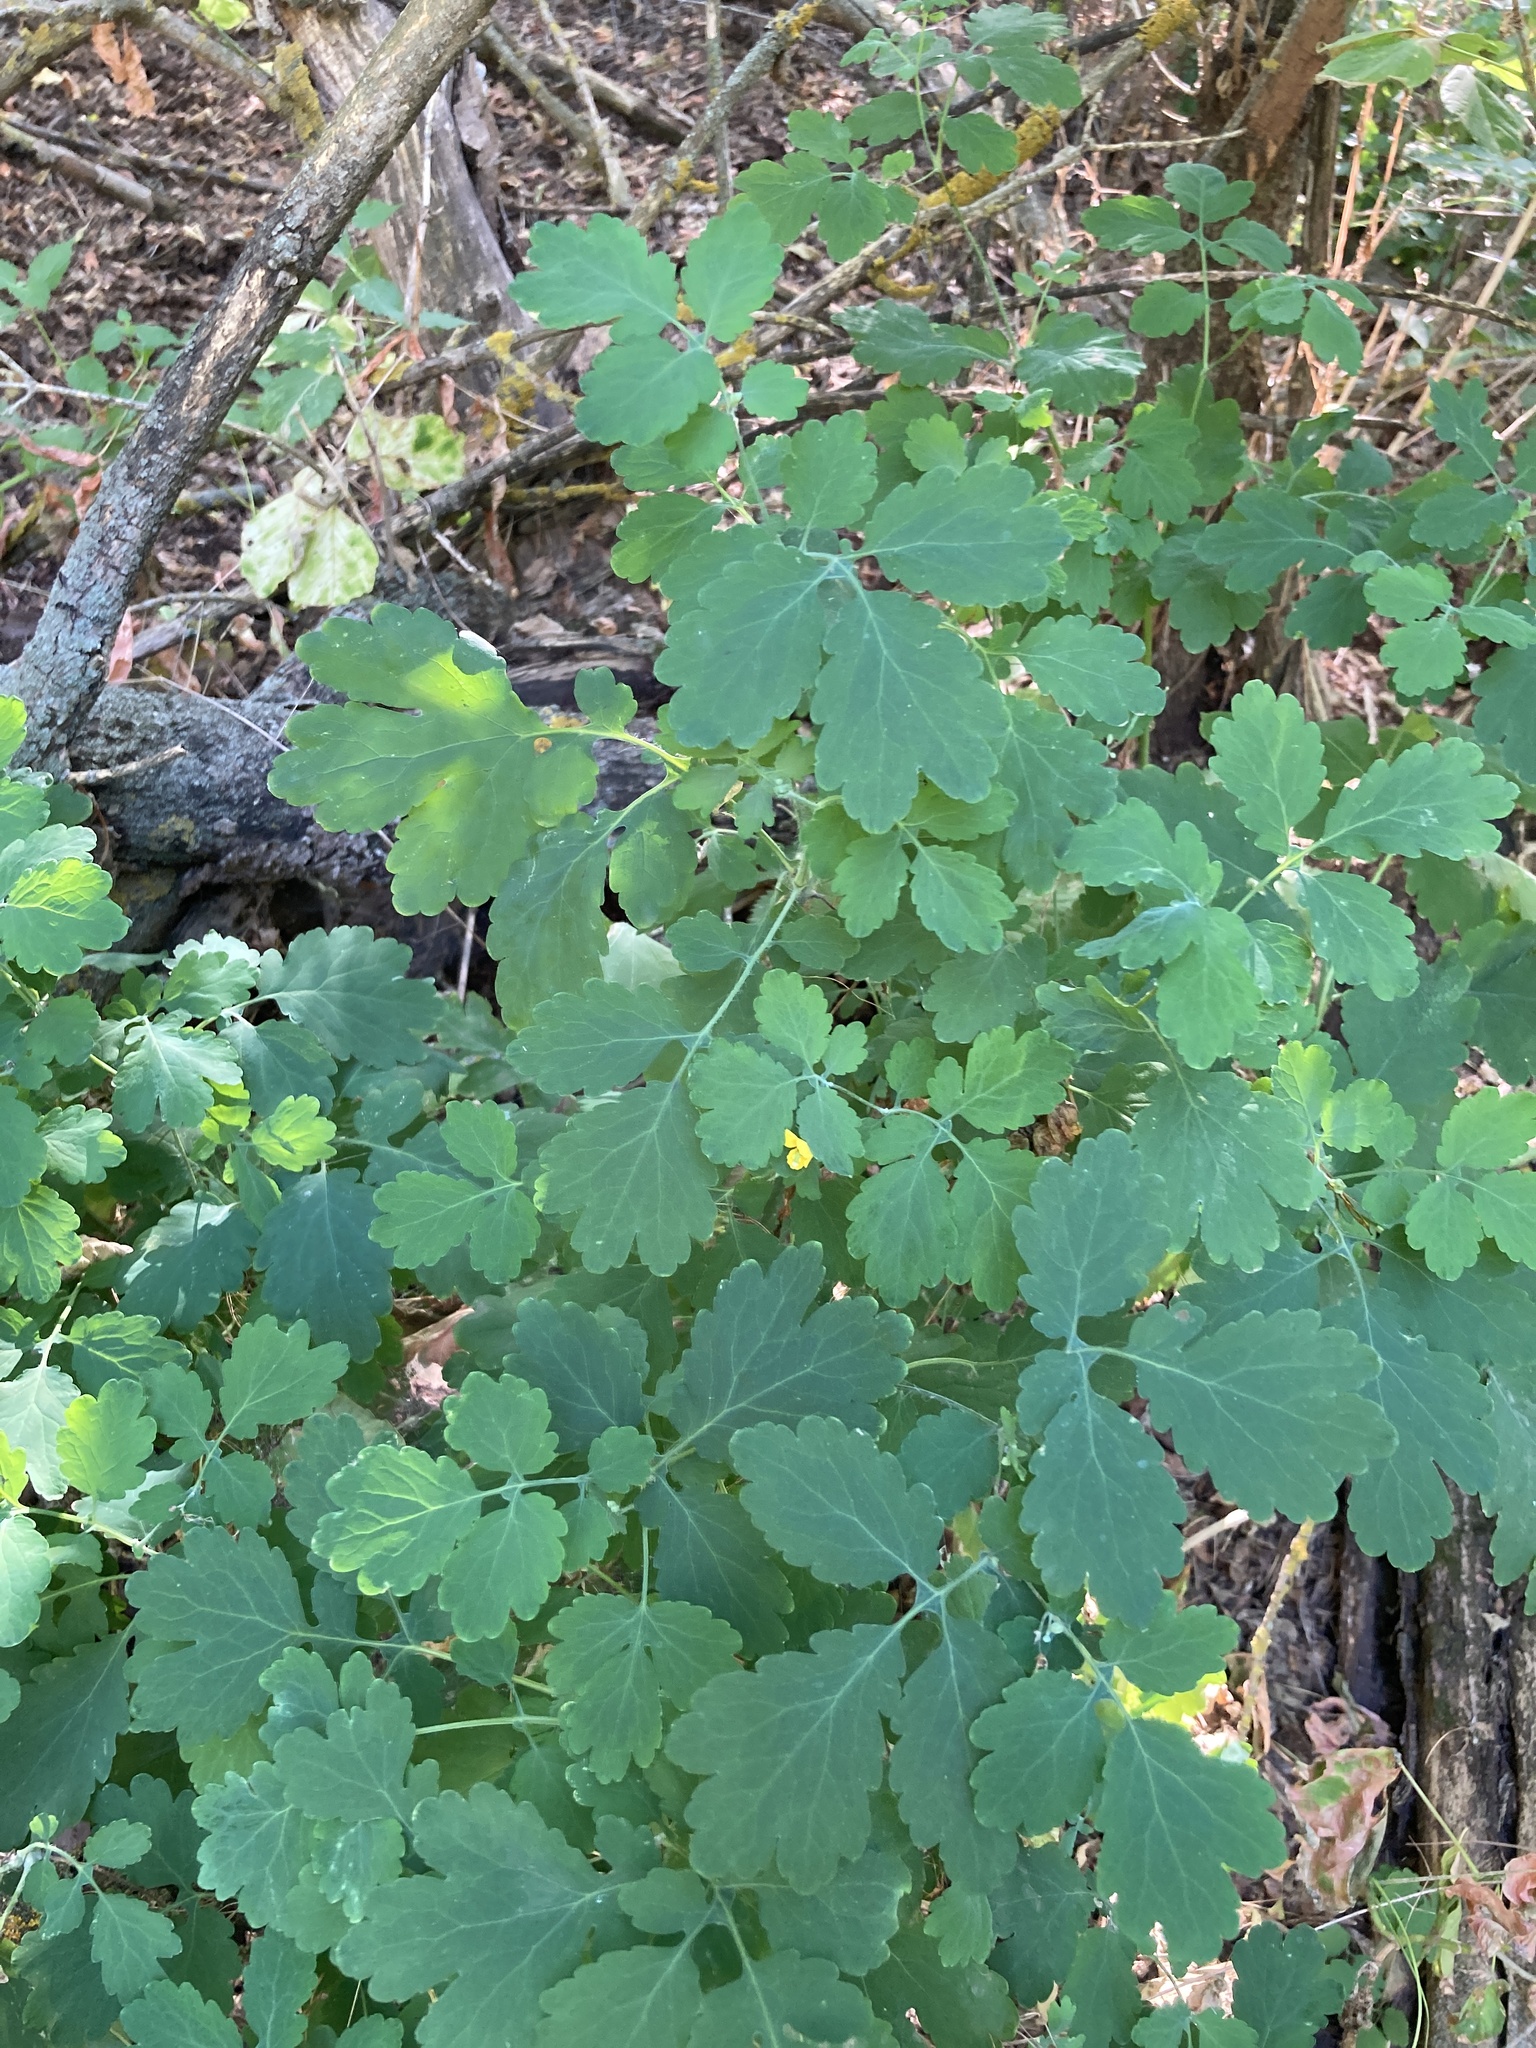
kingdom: Plantae
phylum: Tracheophyta
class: Magnoliopsida
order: Ranunculales
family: Papaveraceae
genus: Chelidonium
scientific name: Chelidonium majus
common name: Greater celandine
